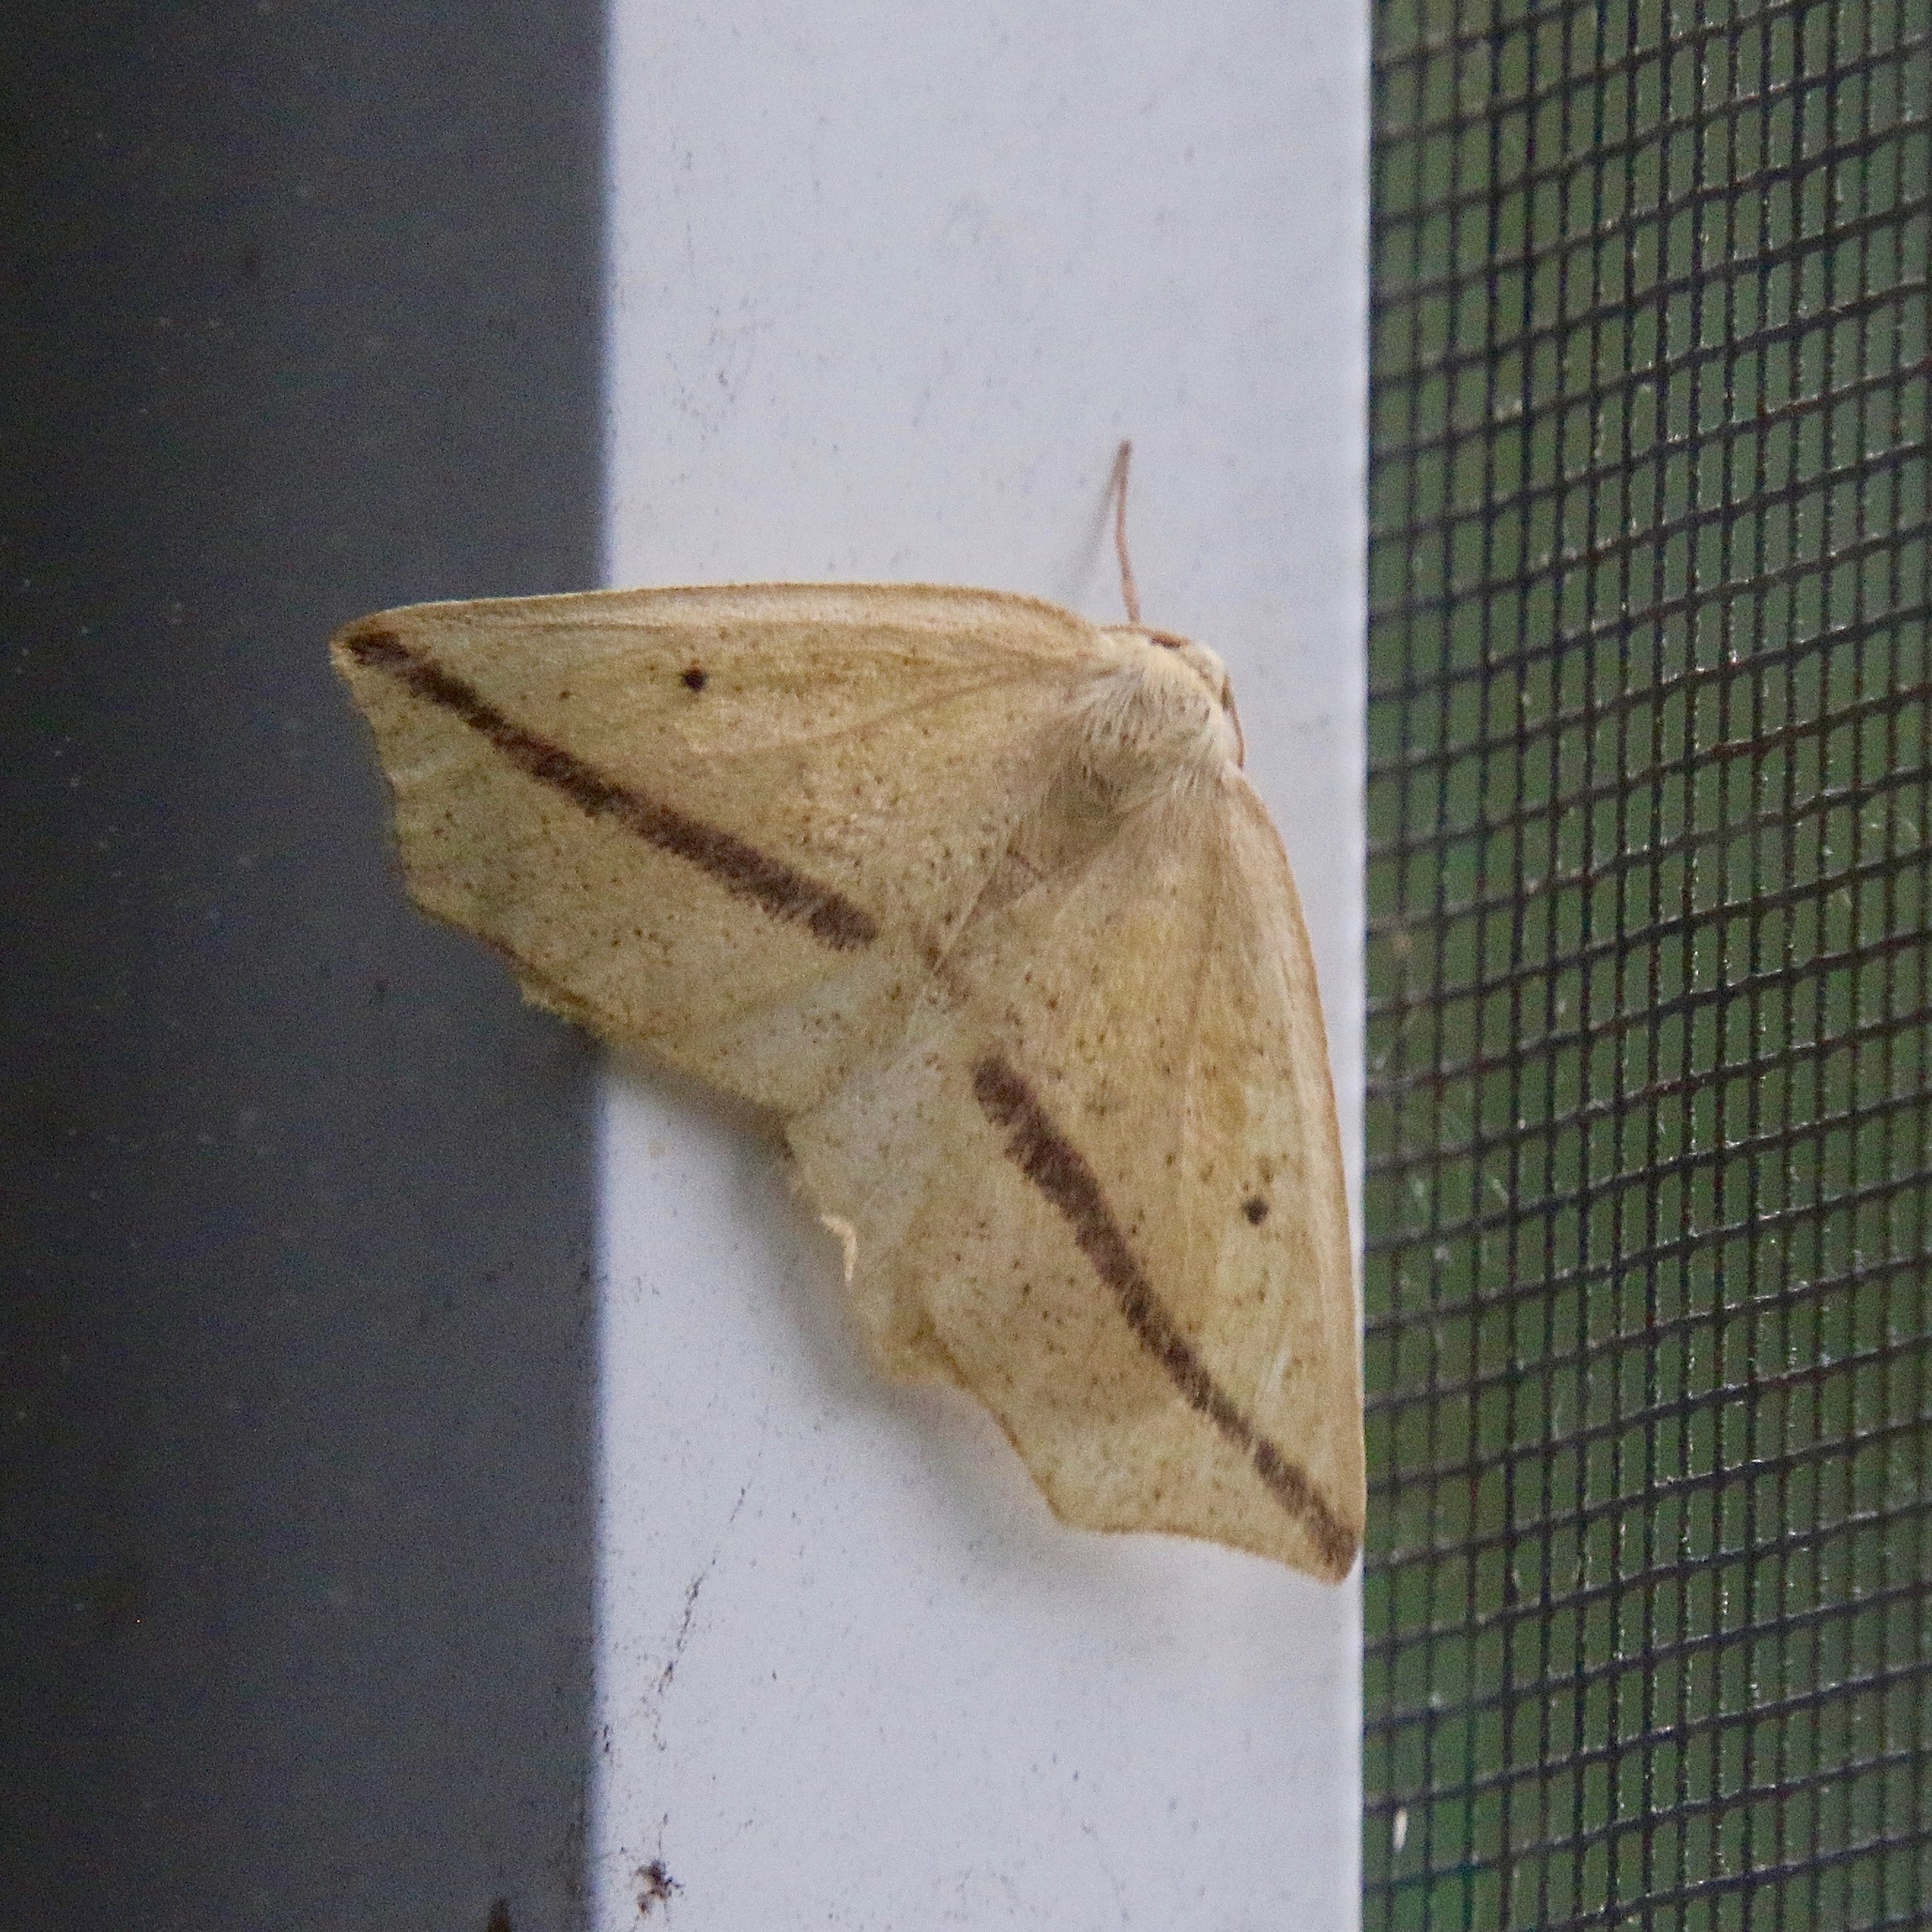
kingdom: Animalia
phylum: Arthropoda
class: Insecta
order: Lepidoptera
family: Geometridae
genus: Tetracis
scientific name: Tetracis crocallata
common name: Yellow slant-line
